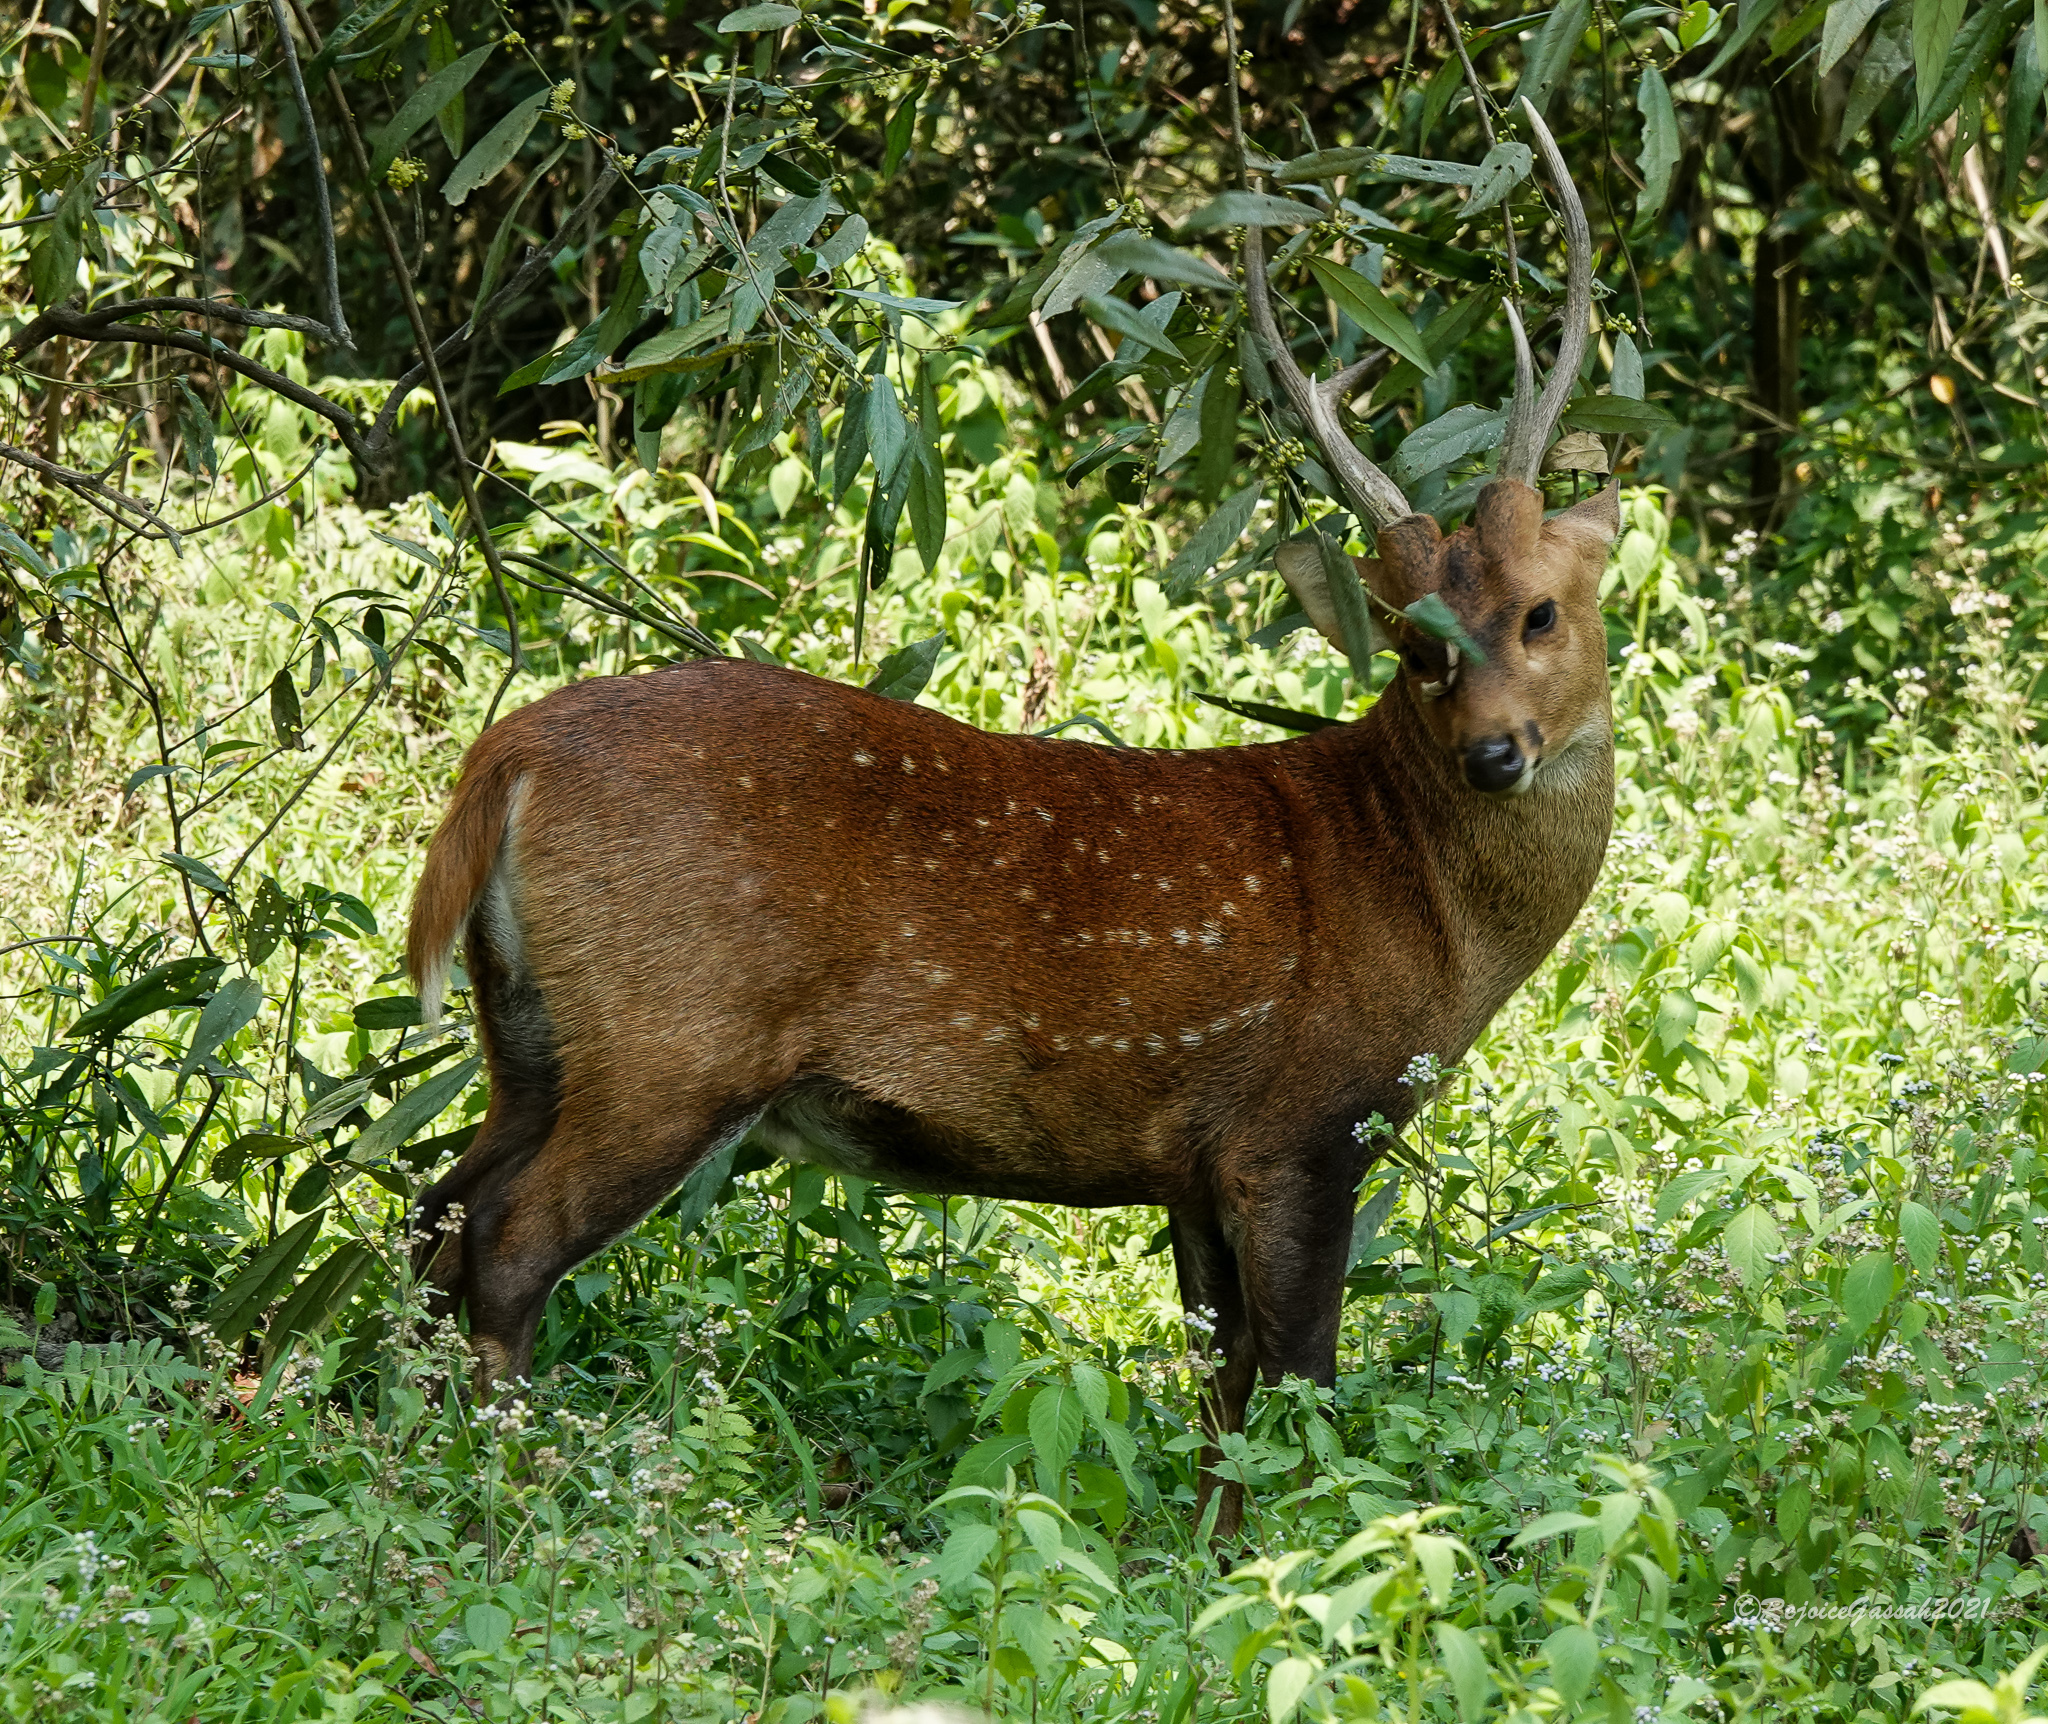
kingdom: Animalia
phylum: Chordata
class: Mammalia
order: Artiodactyla
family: Cervidae
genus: Axis
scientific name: Axis porcinus
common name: Hog deer
